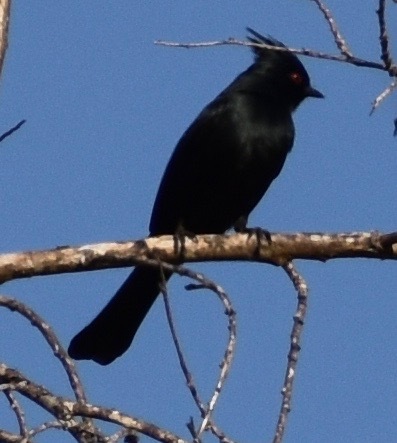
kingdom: Animalia
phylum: Chordata
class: Aves
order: Passeriformes
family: Ptilogonatidae
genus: Phainopepla
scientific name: Phainopepla nitens
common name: Phainopepla
